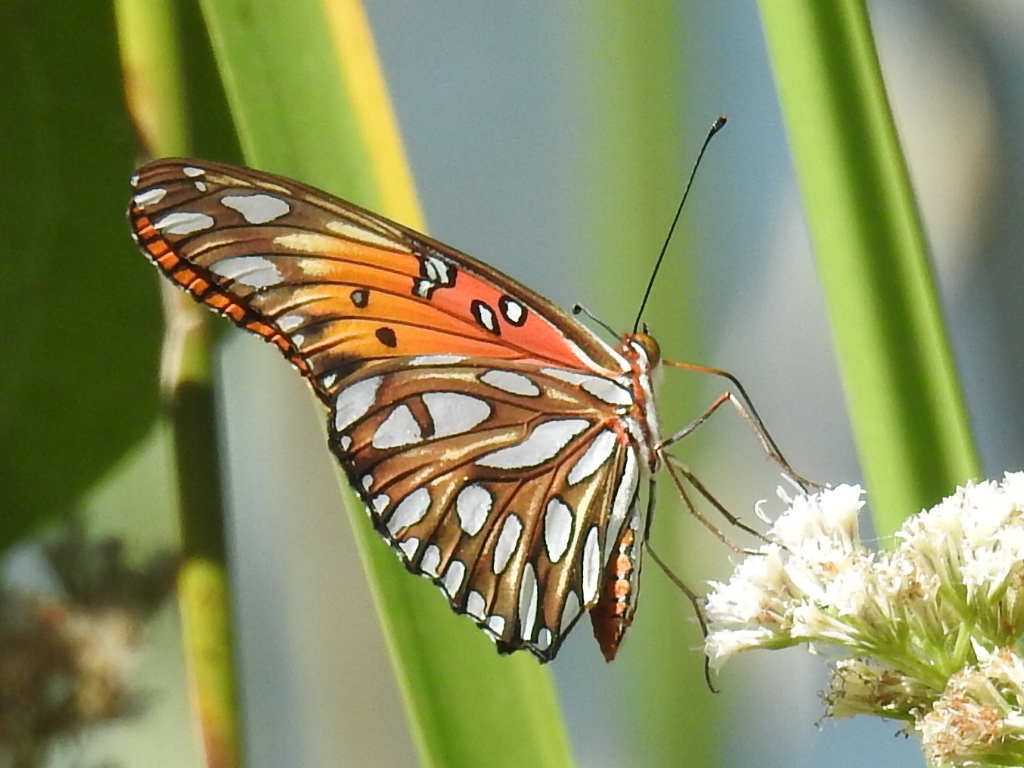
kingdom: Animalia
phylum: Arthropoda
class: Insecta
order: Lepidoptera
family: Nymphalidae
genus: Dione
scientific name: Dione vanillae
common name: Gulf fritillary
